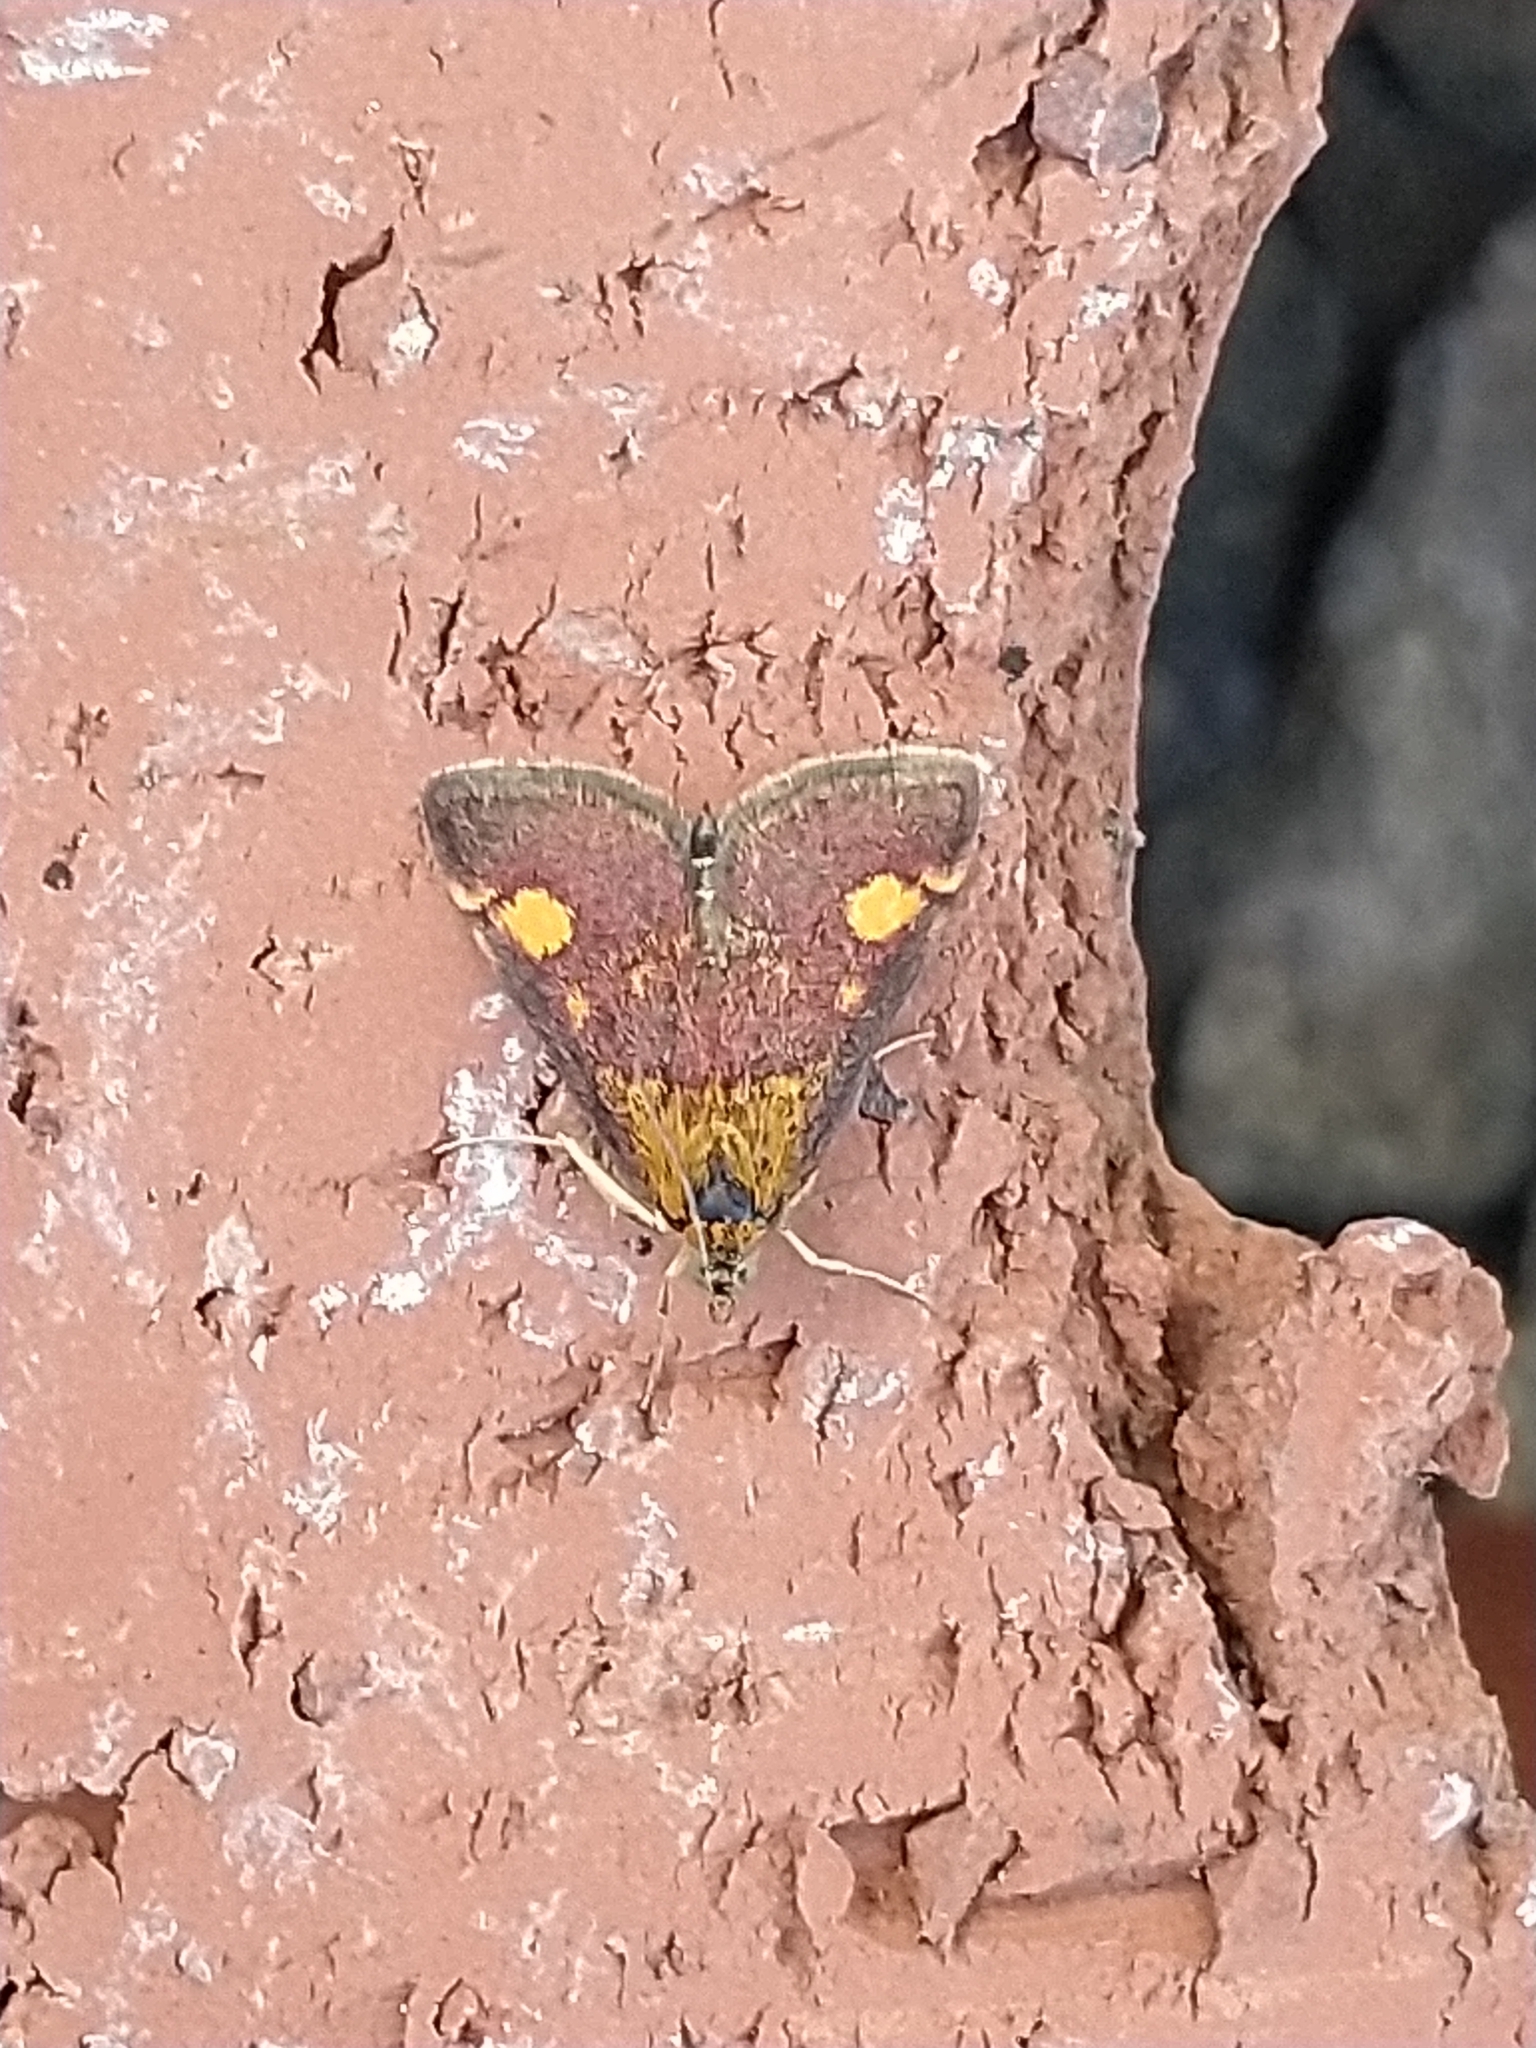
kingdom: Animalia
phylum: Arthropoda
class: Insecta
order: Lepidoptera
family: Crambidae
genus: Pyrausta
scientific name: Pyrausta aurata
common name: Small purple & gold
